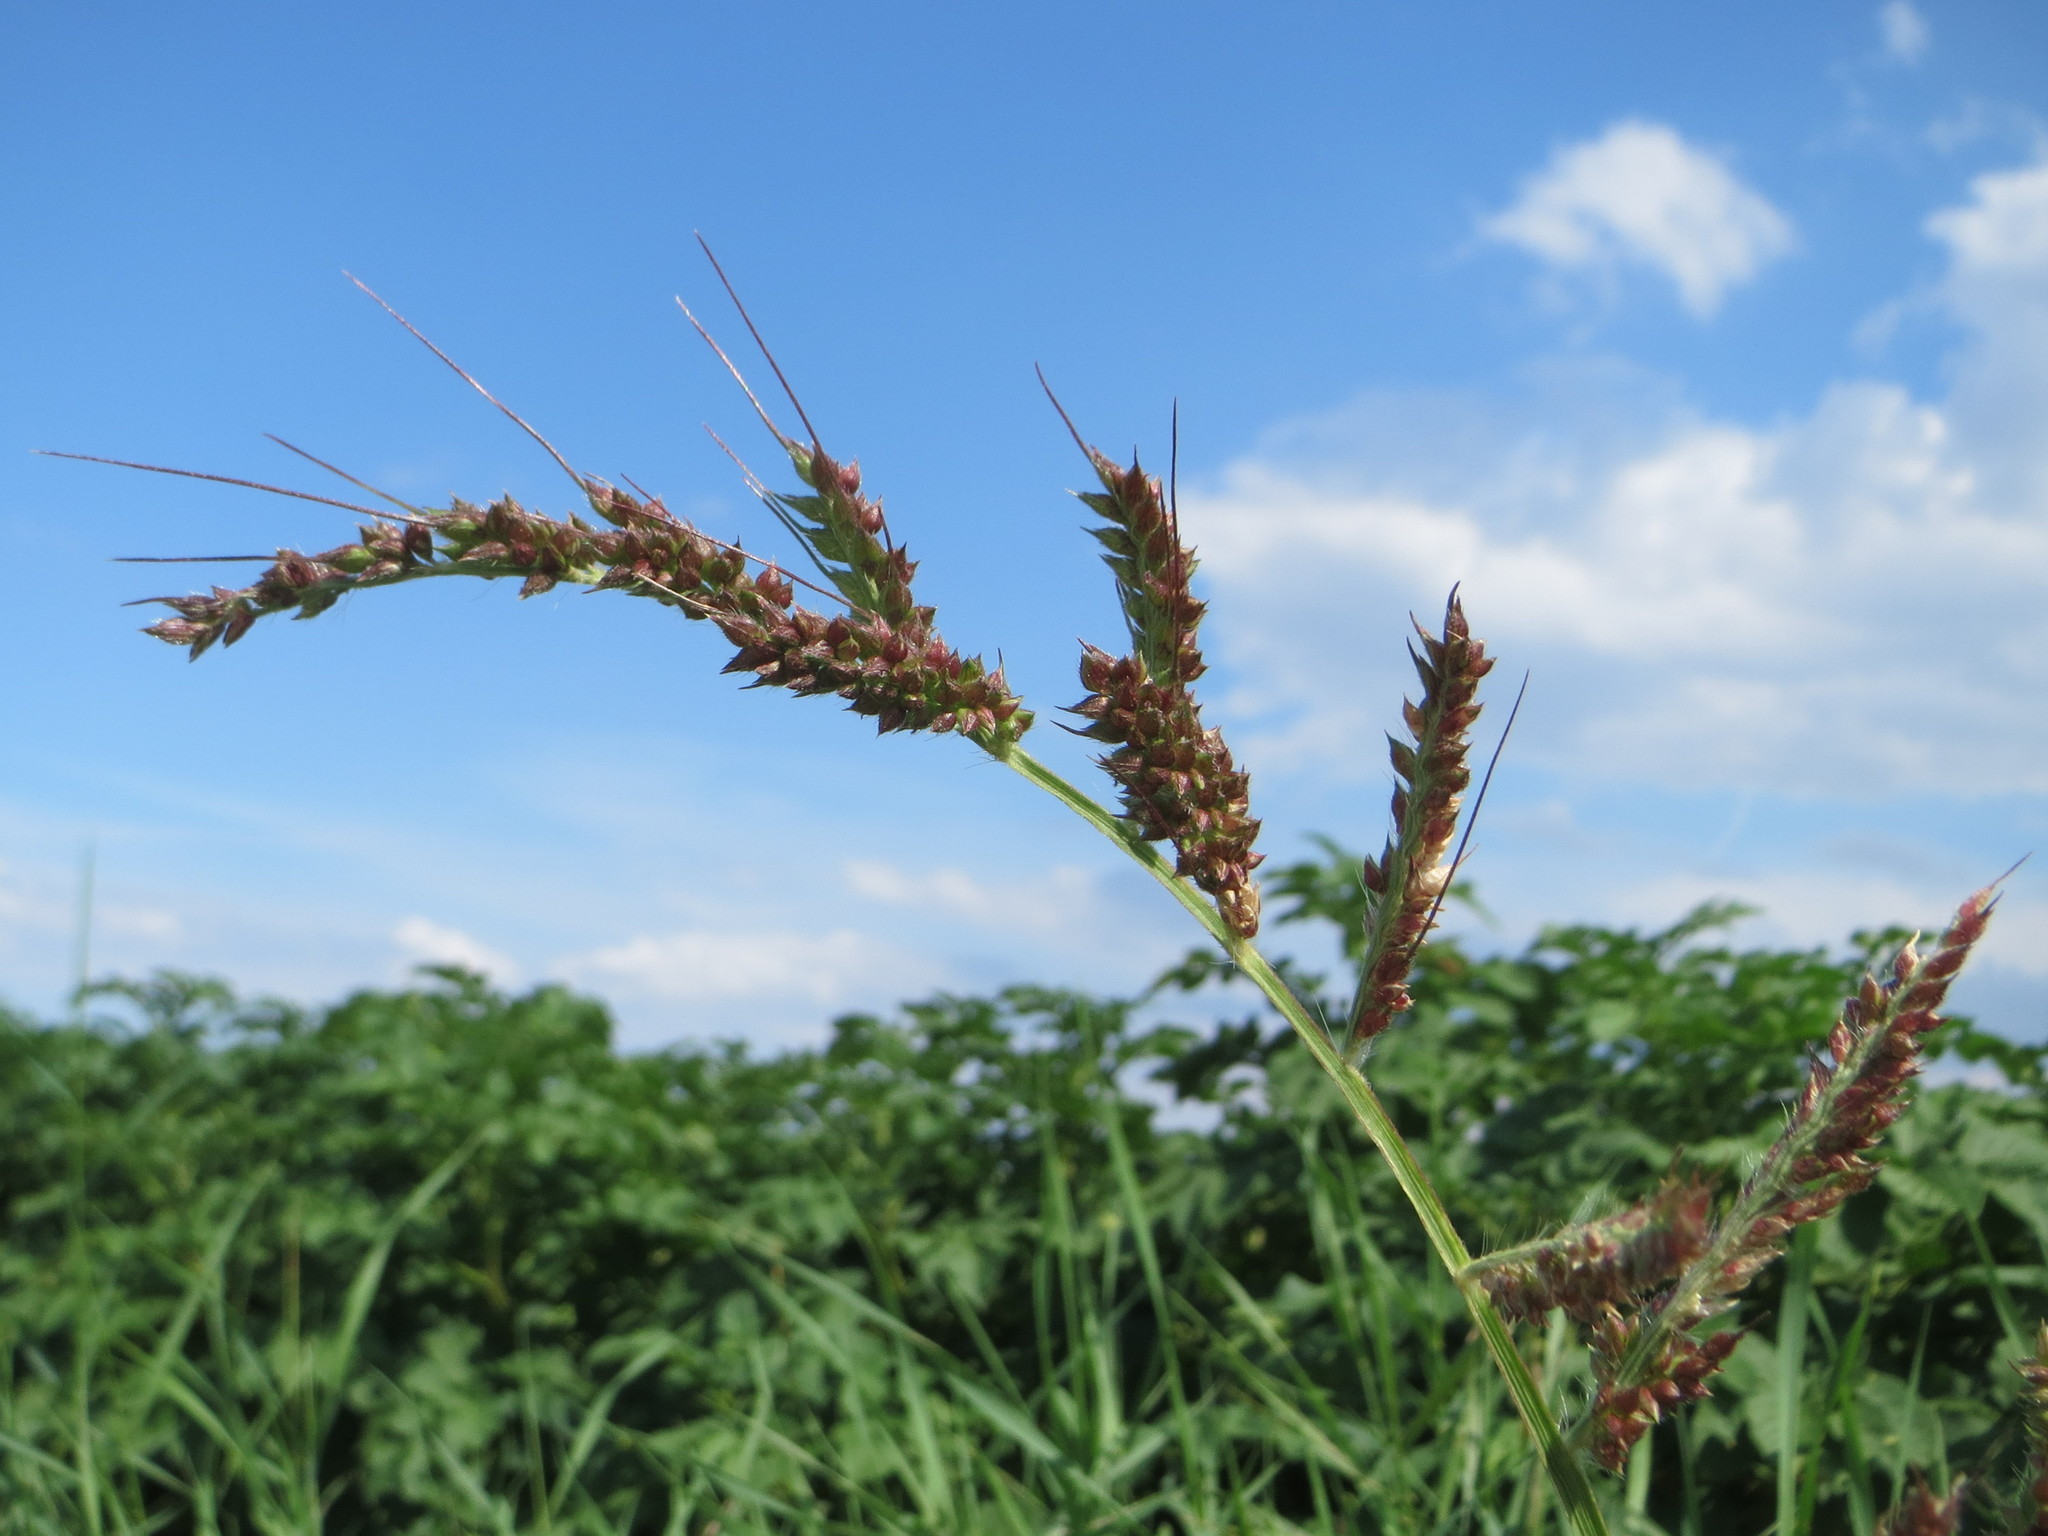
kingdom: Plantae
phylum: Tracheophyta
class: Liliopsida
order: Poales
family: Poaceae
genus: Echinochloa
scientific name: Echinochloa crus-galli
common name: Cockspur
